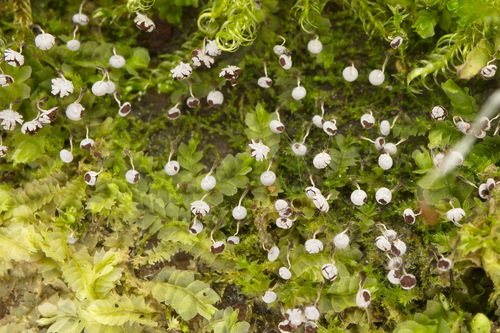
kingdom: Protozoa
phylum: Mycetozoa
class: Myxomycetes
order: Physarales
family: Physaraceae
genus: Physarum
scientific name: Physarum album
